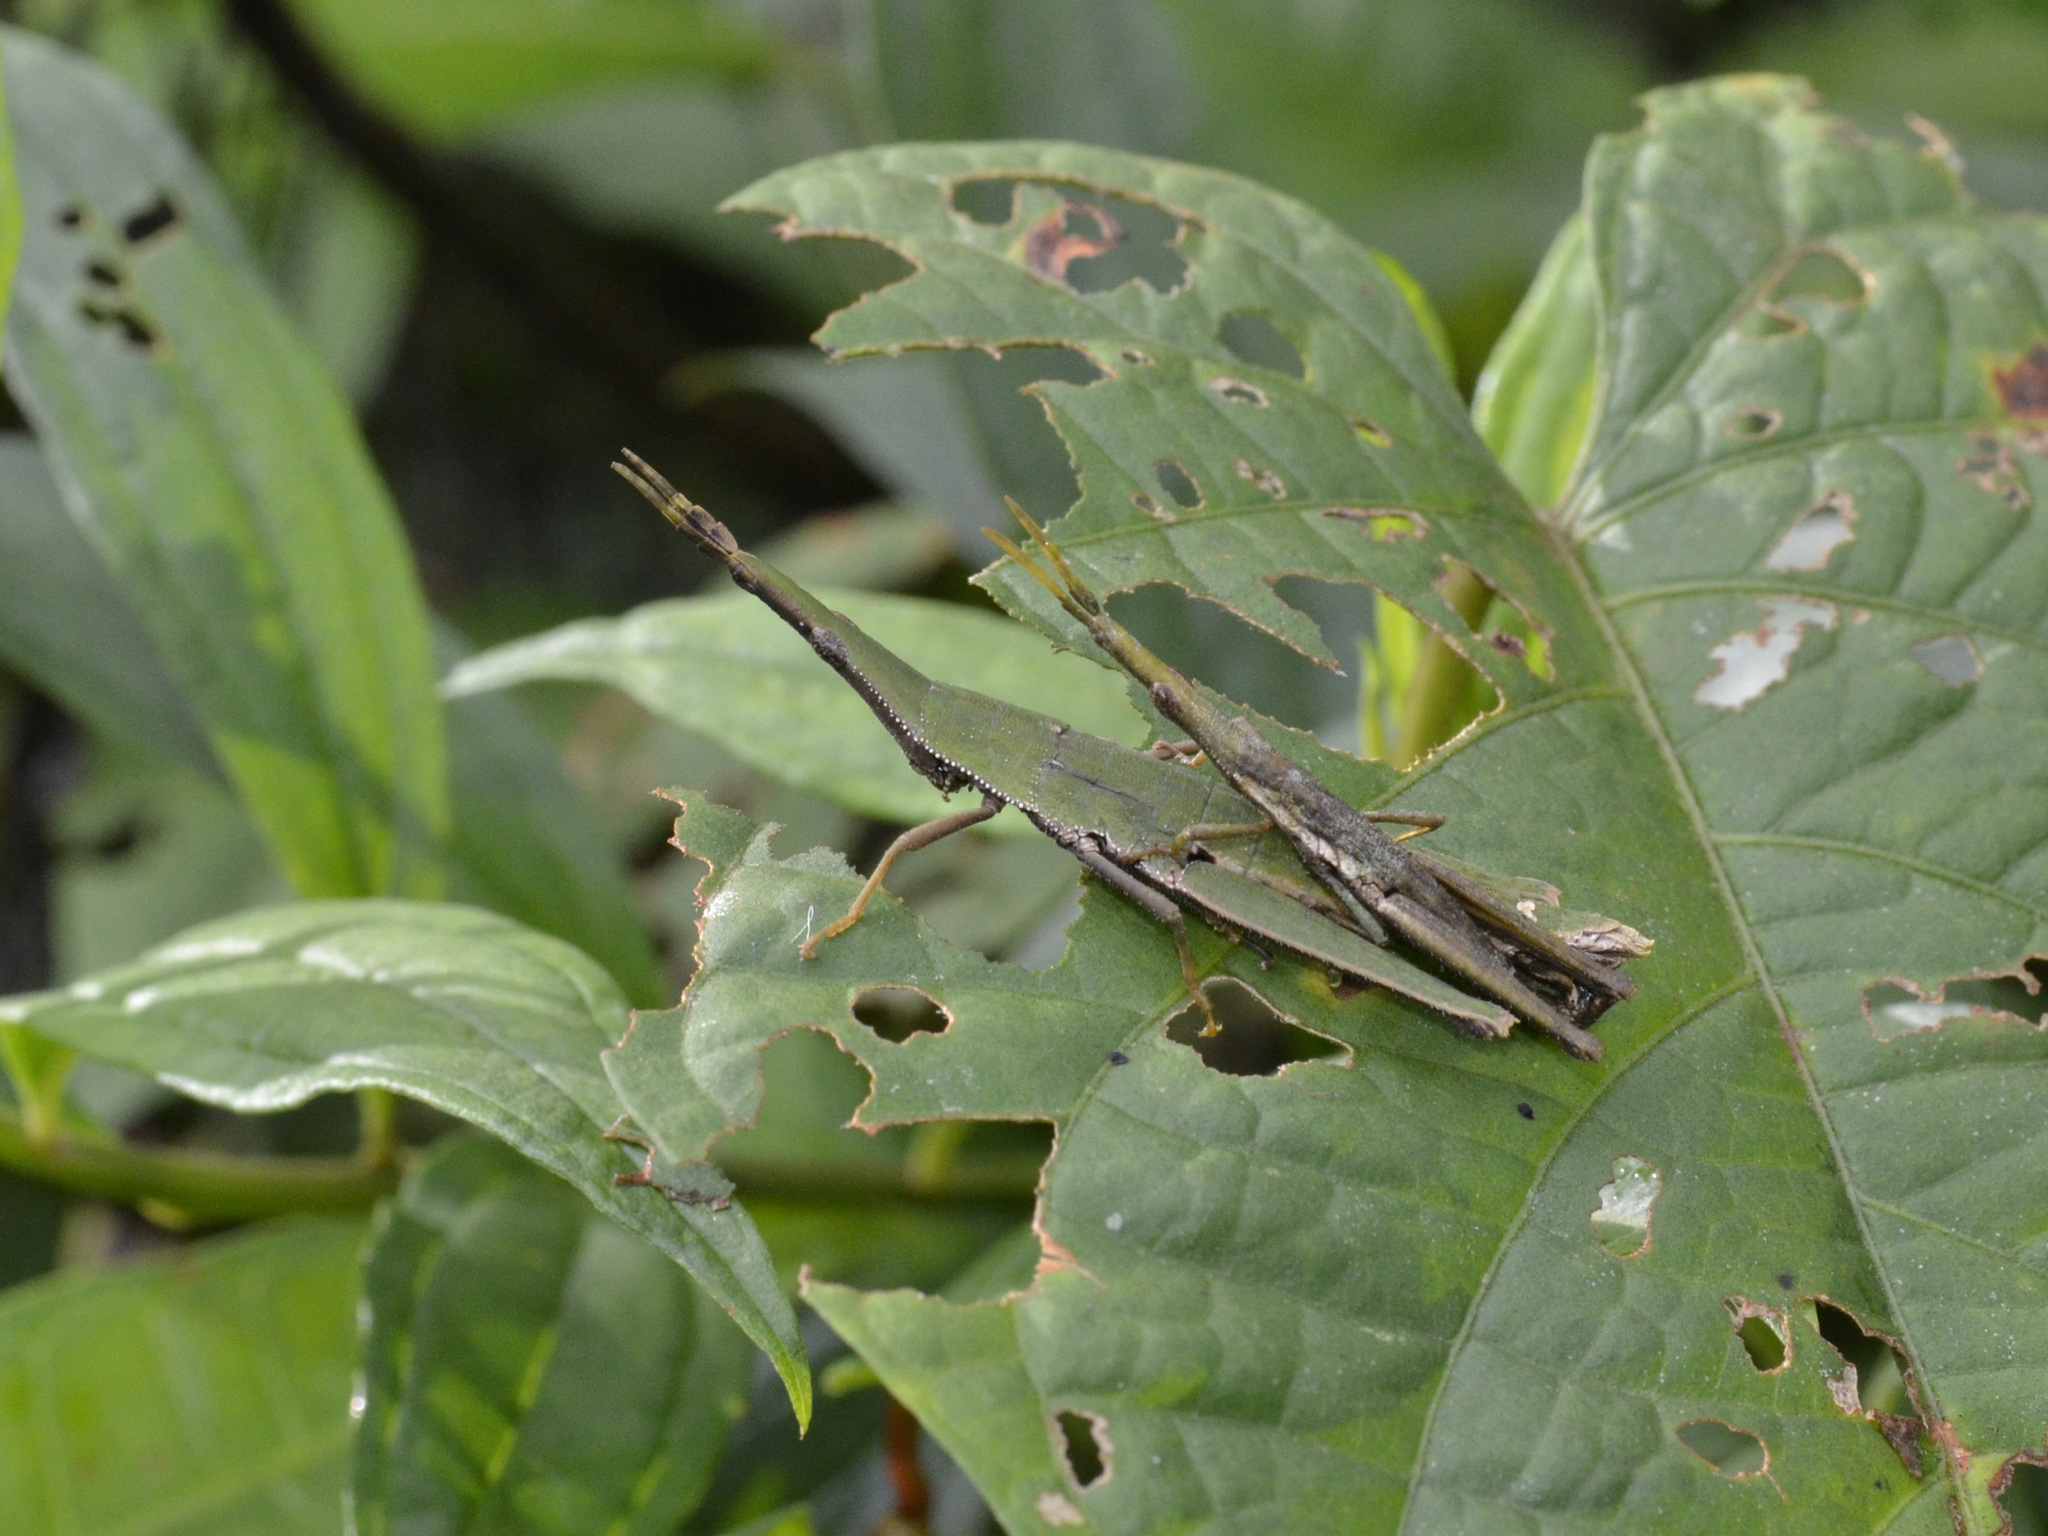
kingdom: Animalia
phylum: Arthropoda
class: Insecta
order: Orthoptera
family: Pyrgomorphidae
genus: Omura
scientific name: Omura congrua
